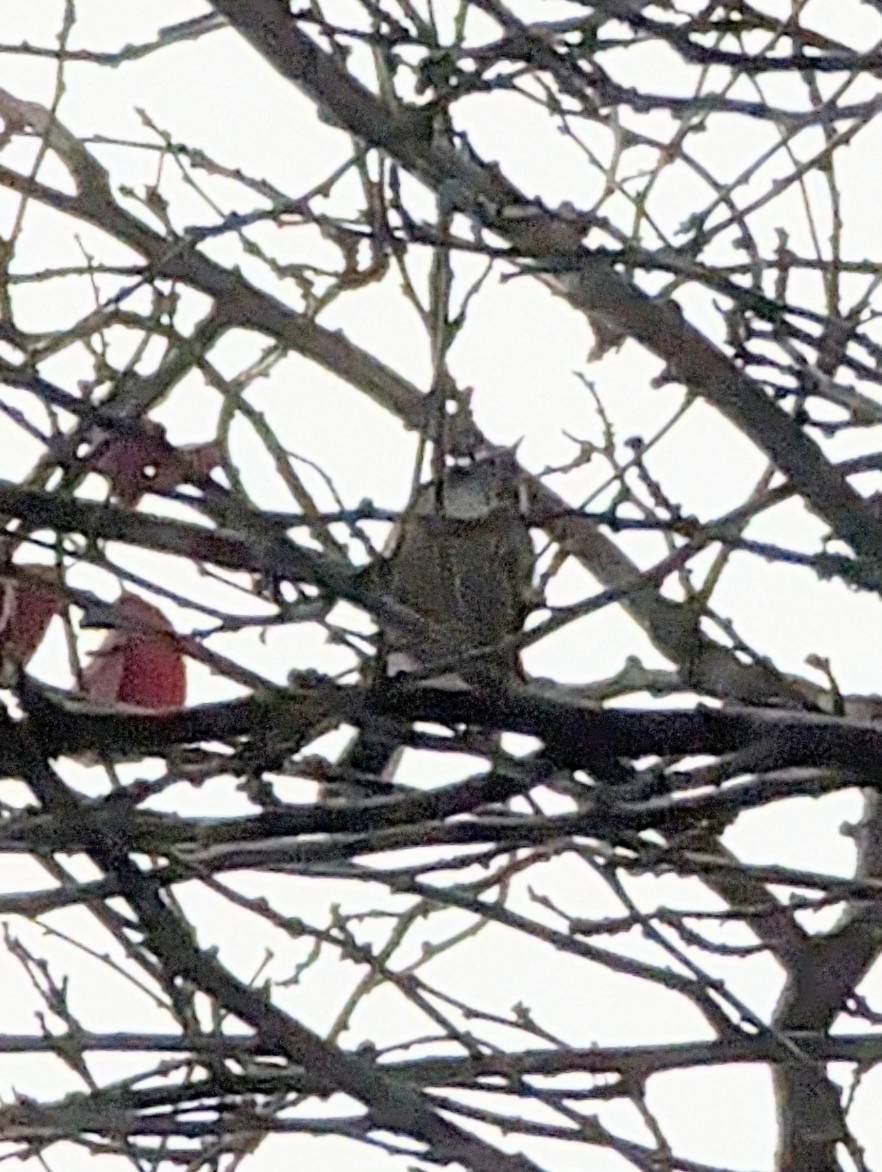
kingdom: Animalia
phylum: Chordata
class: Aves
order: Passeriformes
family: Paridae
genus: Poecile
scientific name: Poecile atricapillus
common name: Black-capped chickadee
